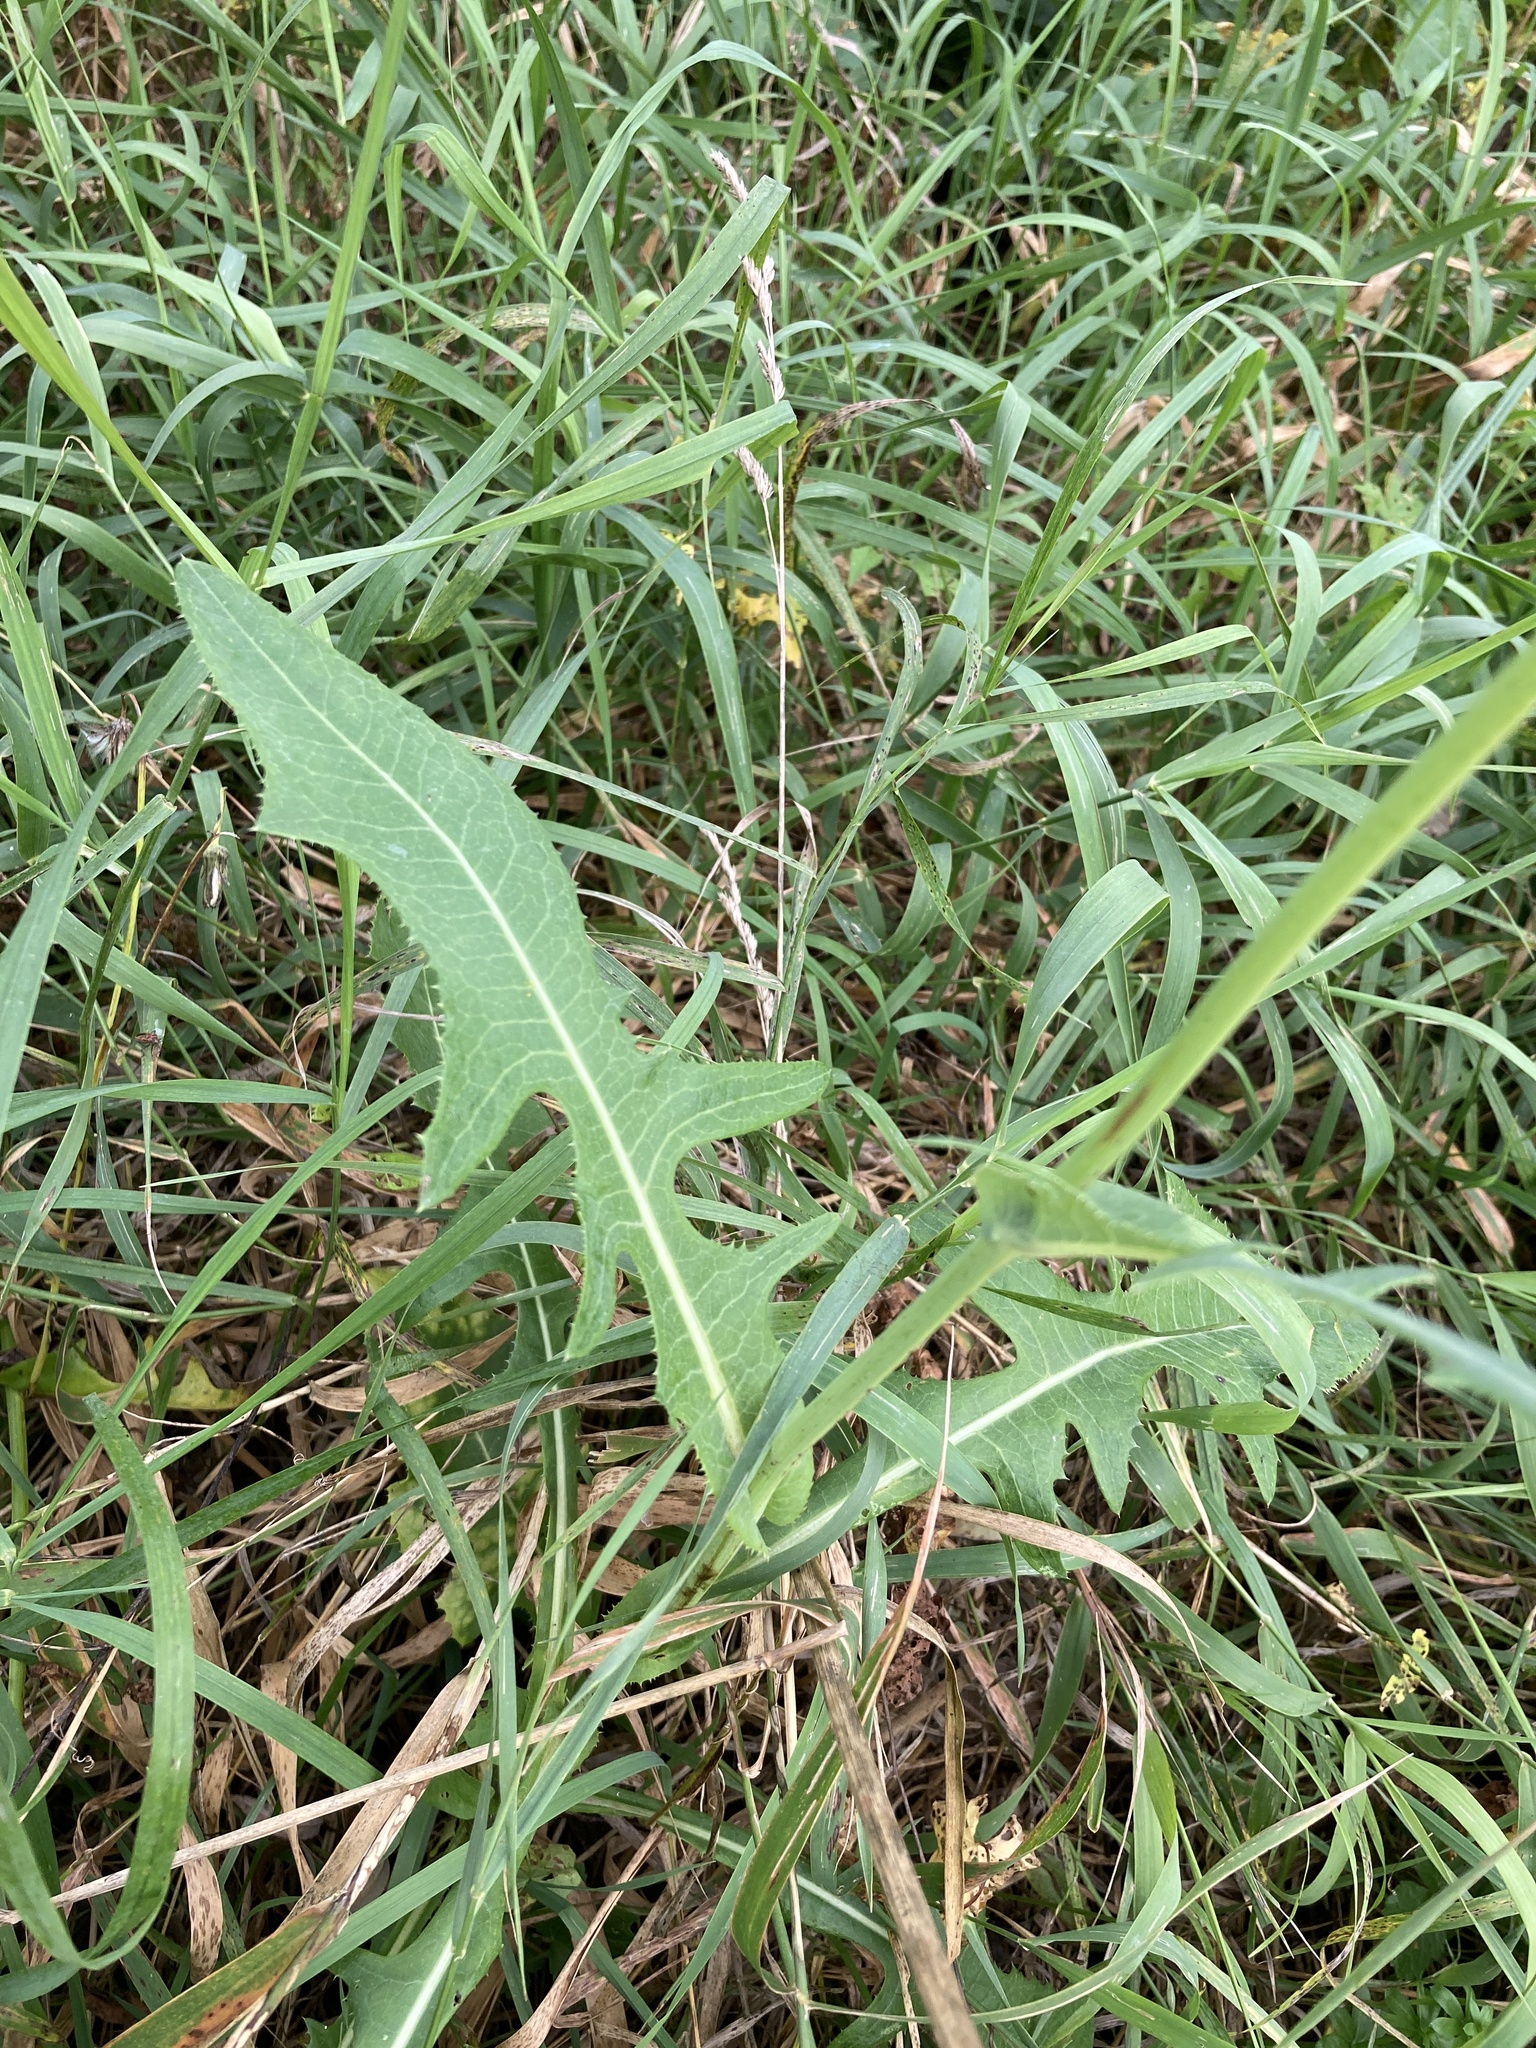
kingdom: Plantae
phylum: Tracheophyta
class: Magnoliopsida
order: Asterales
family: Asteraceae
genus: Sonchus
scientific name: Sonchus arvensis
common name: Perennial sow-thistle
